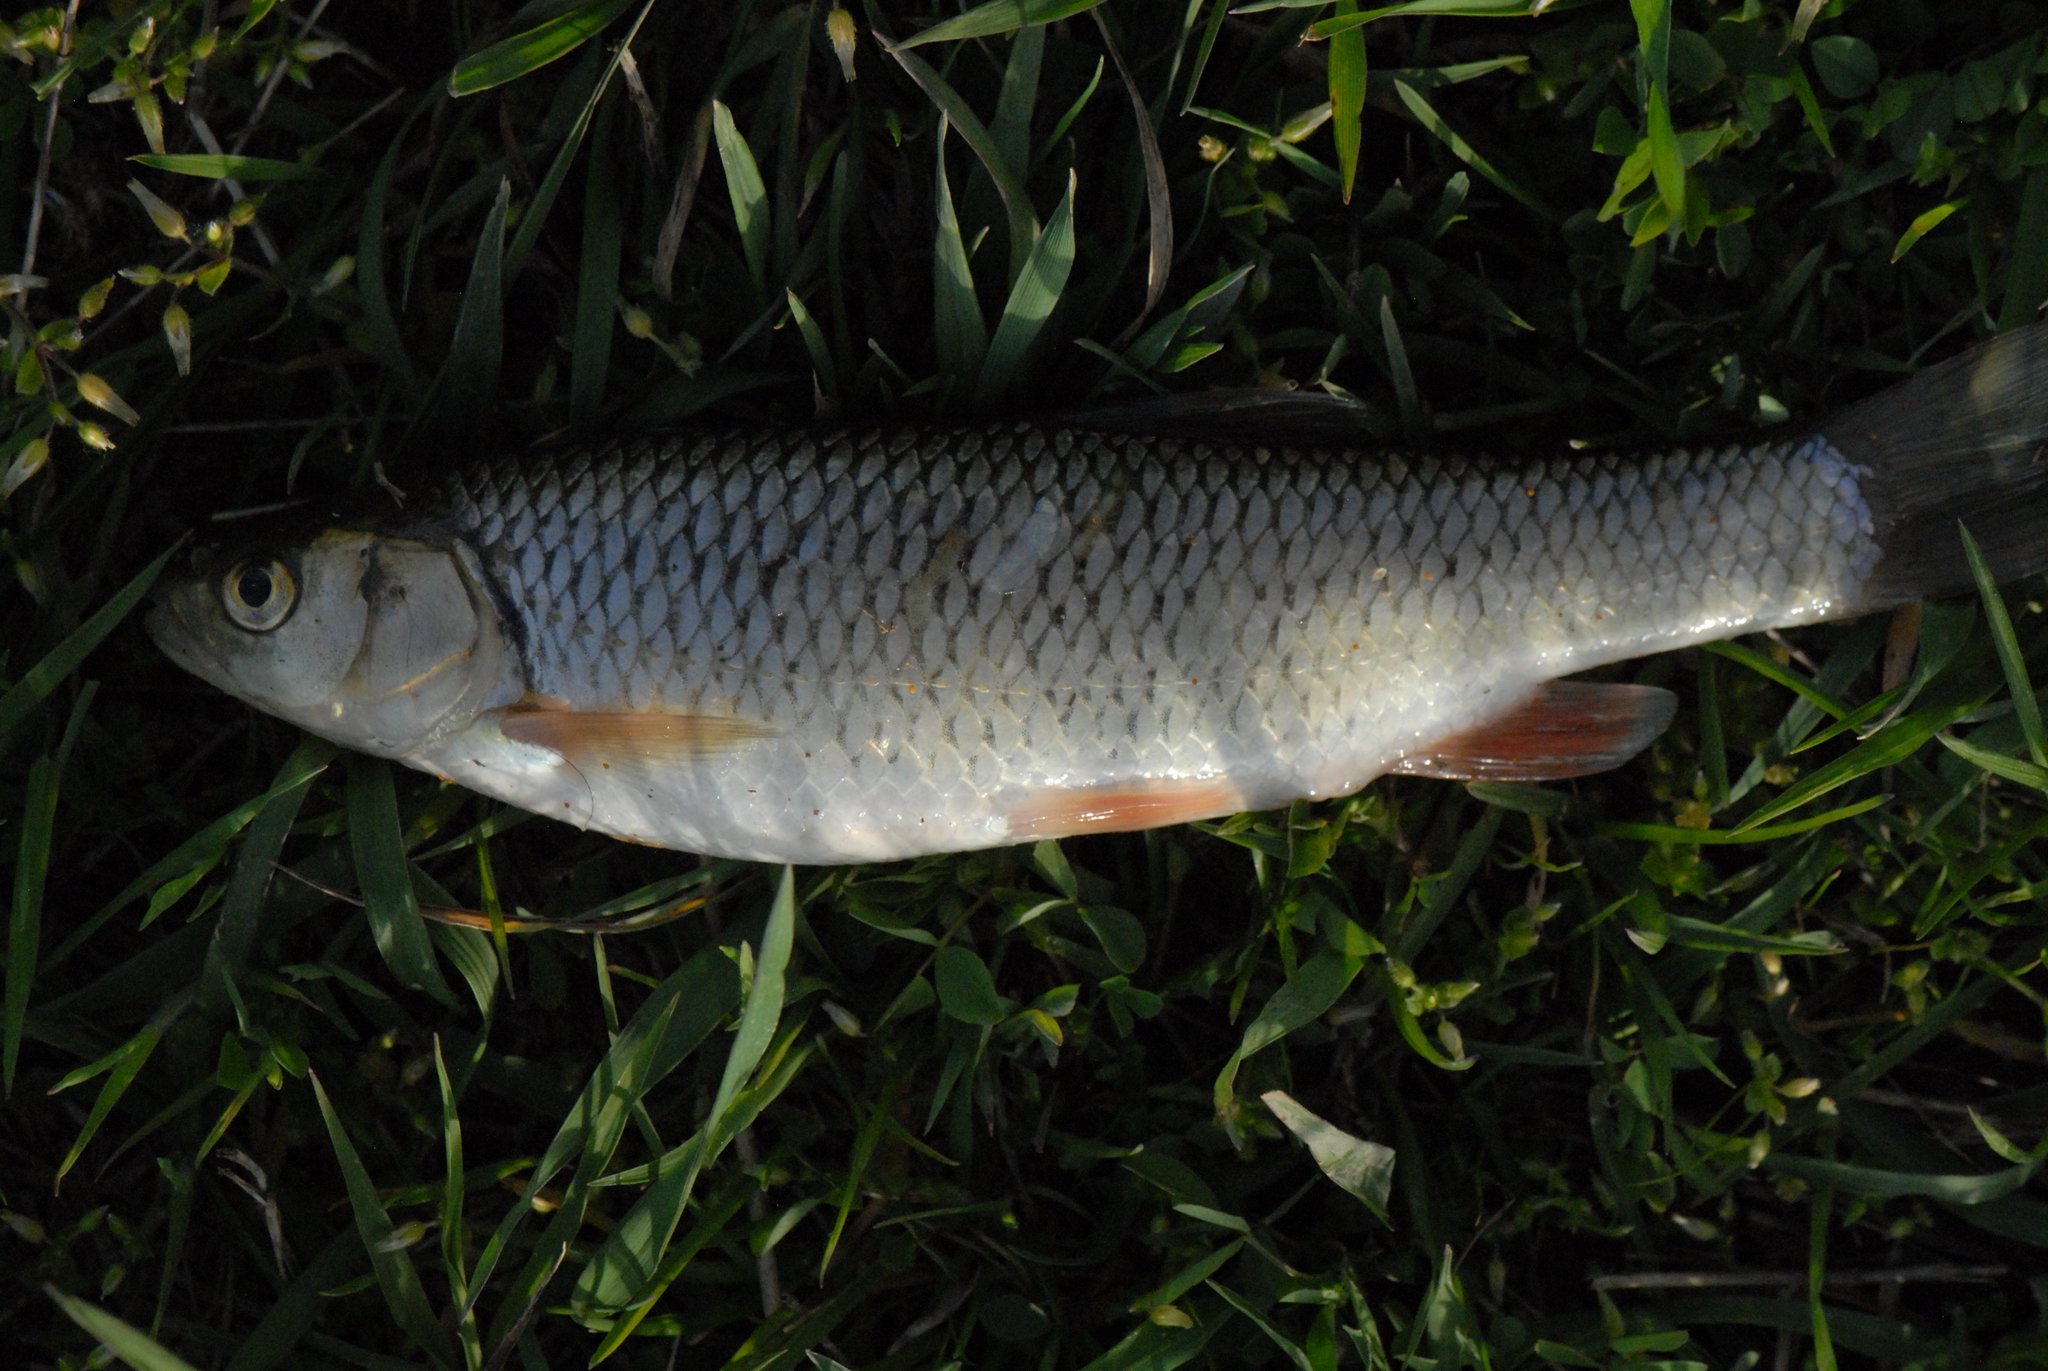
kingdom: Animalia
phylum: Chordata
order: Cypriniformes
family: Cyprinidae
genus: Squalius
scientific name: Squalius cephalus
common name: Chub
